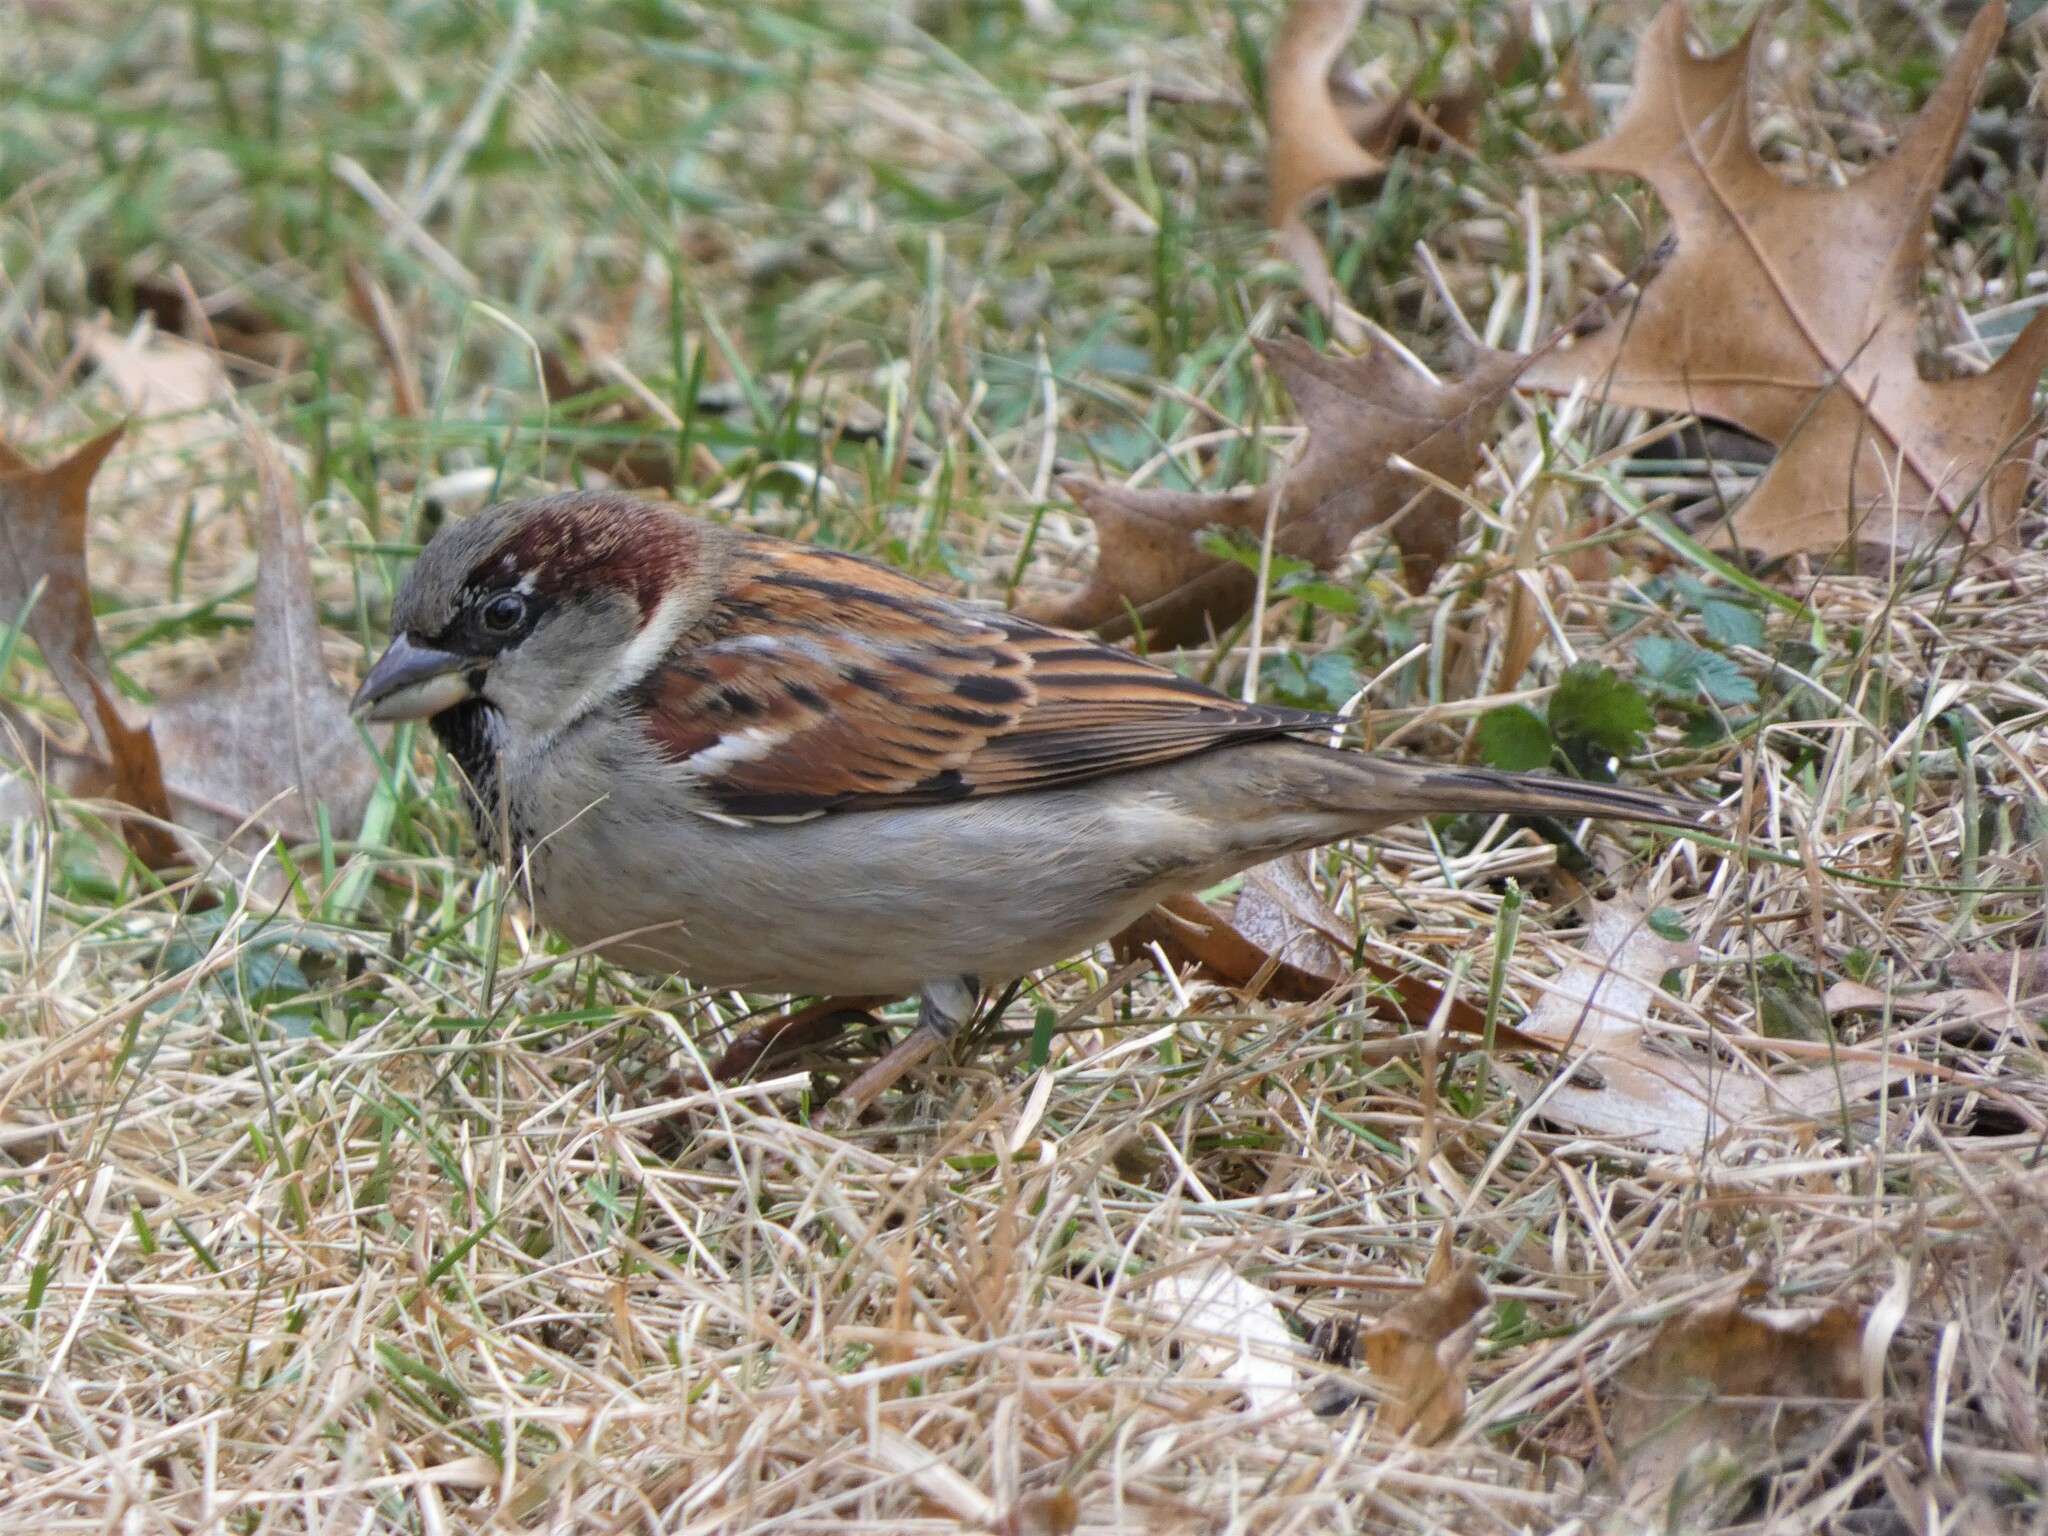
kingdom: Animalia
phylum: Chordata
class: Aves
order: Passeriformes
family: Passeridae
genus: Passer
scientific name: Passer domesticus
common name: House sparrow
